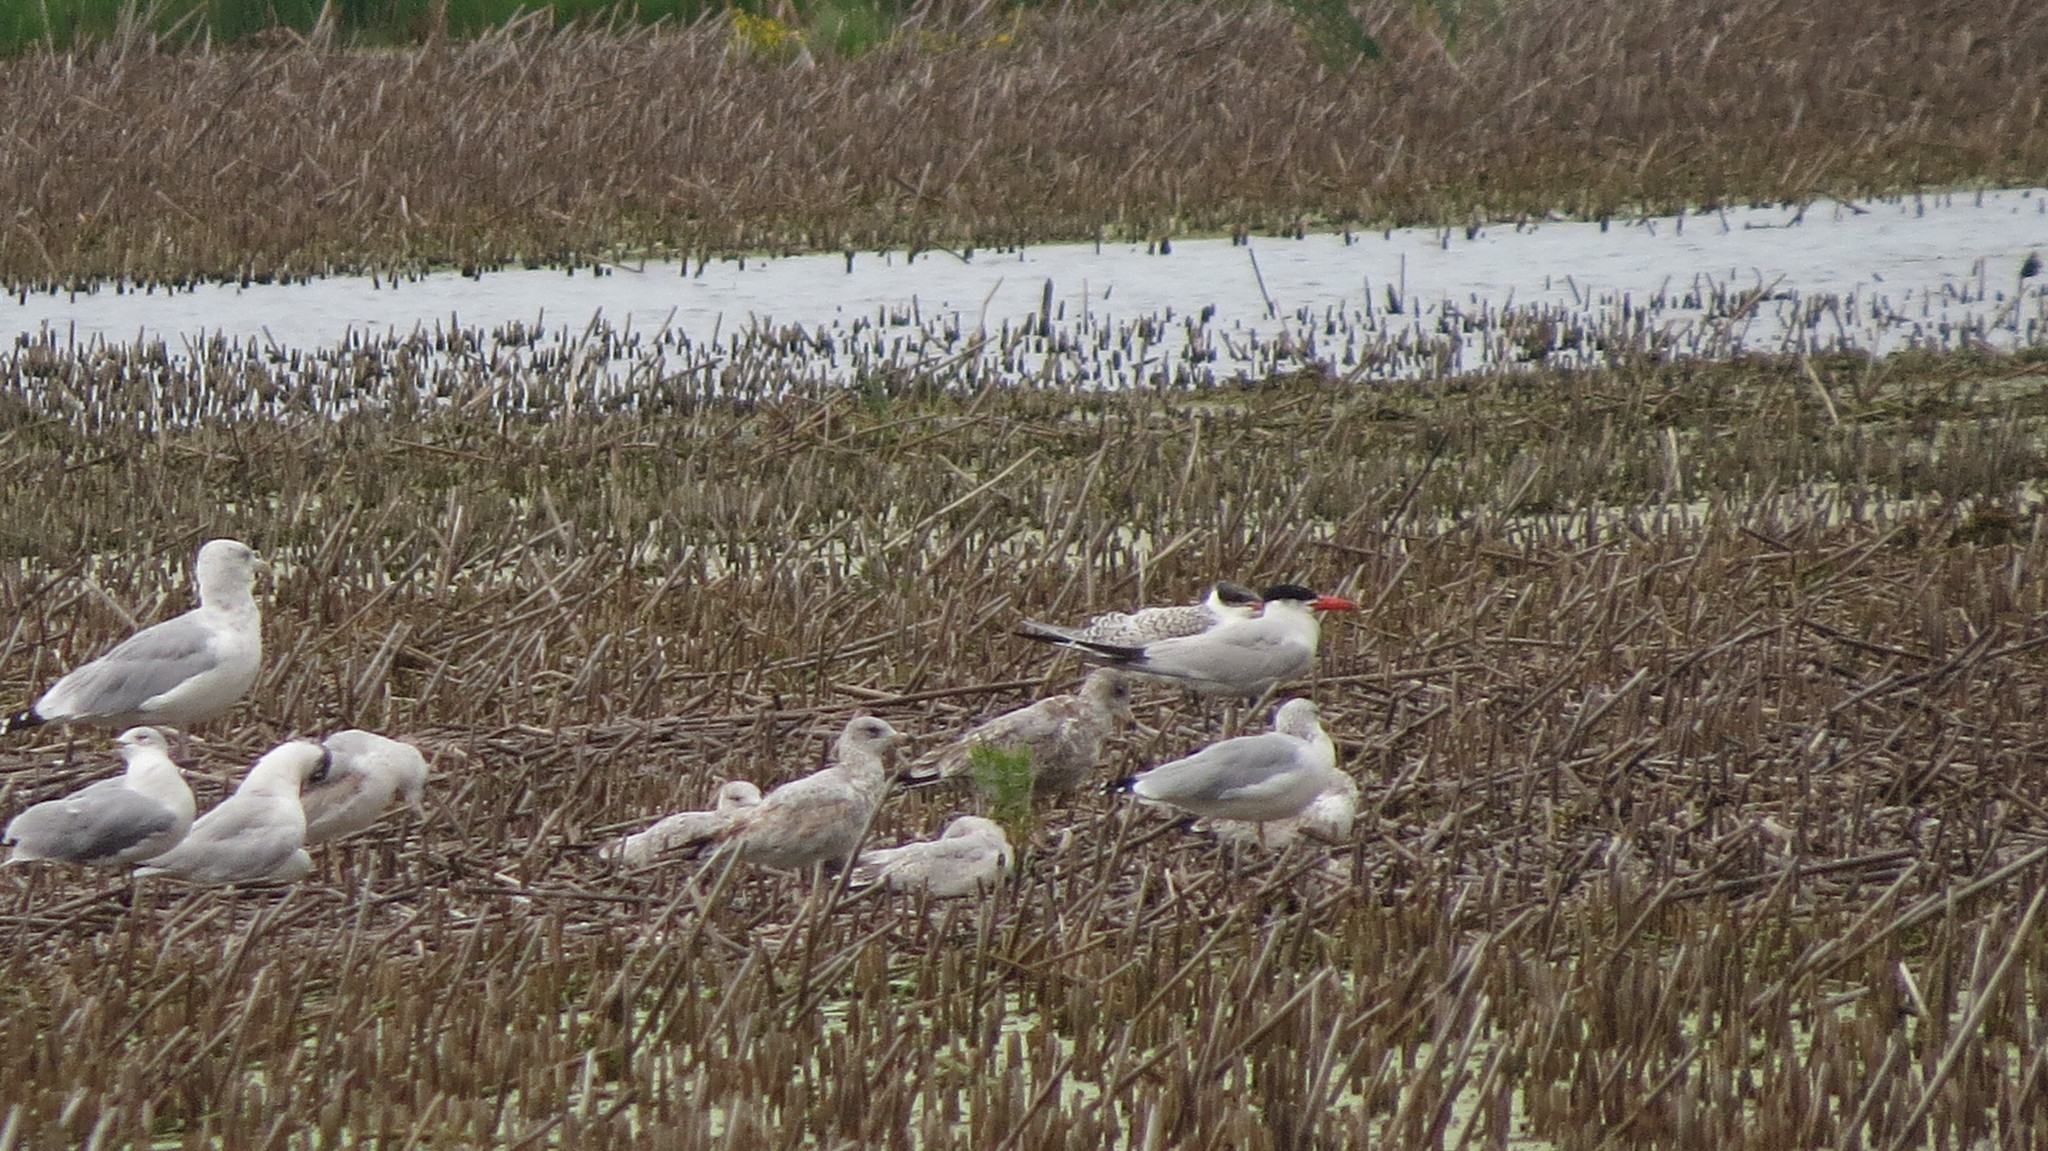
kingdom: Animalia
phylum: Chordata
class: Aves
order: Charadriiformes
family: Laridae
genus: Hydroprogne
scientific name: Hydroprogne caspia
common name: Caspian tern
